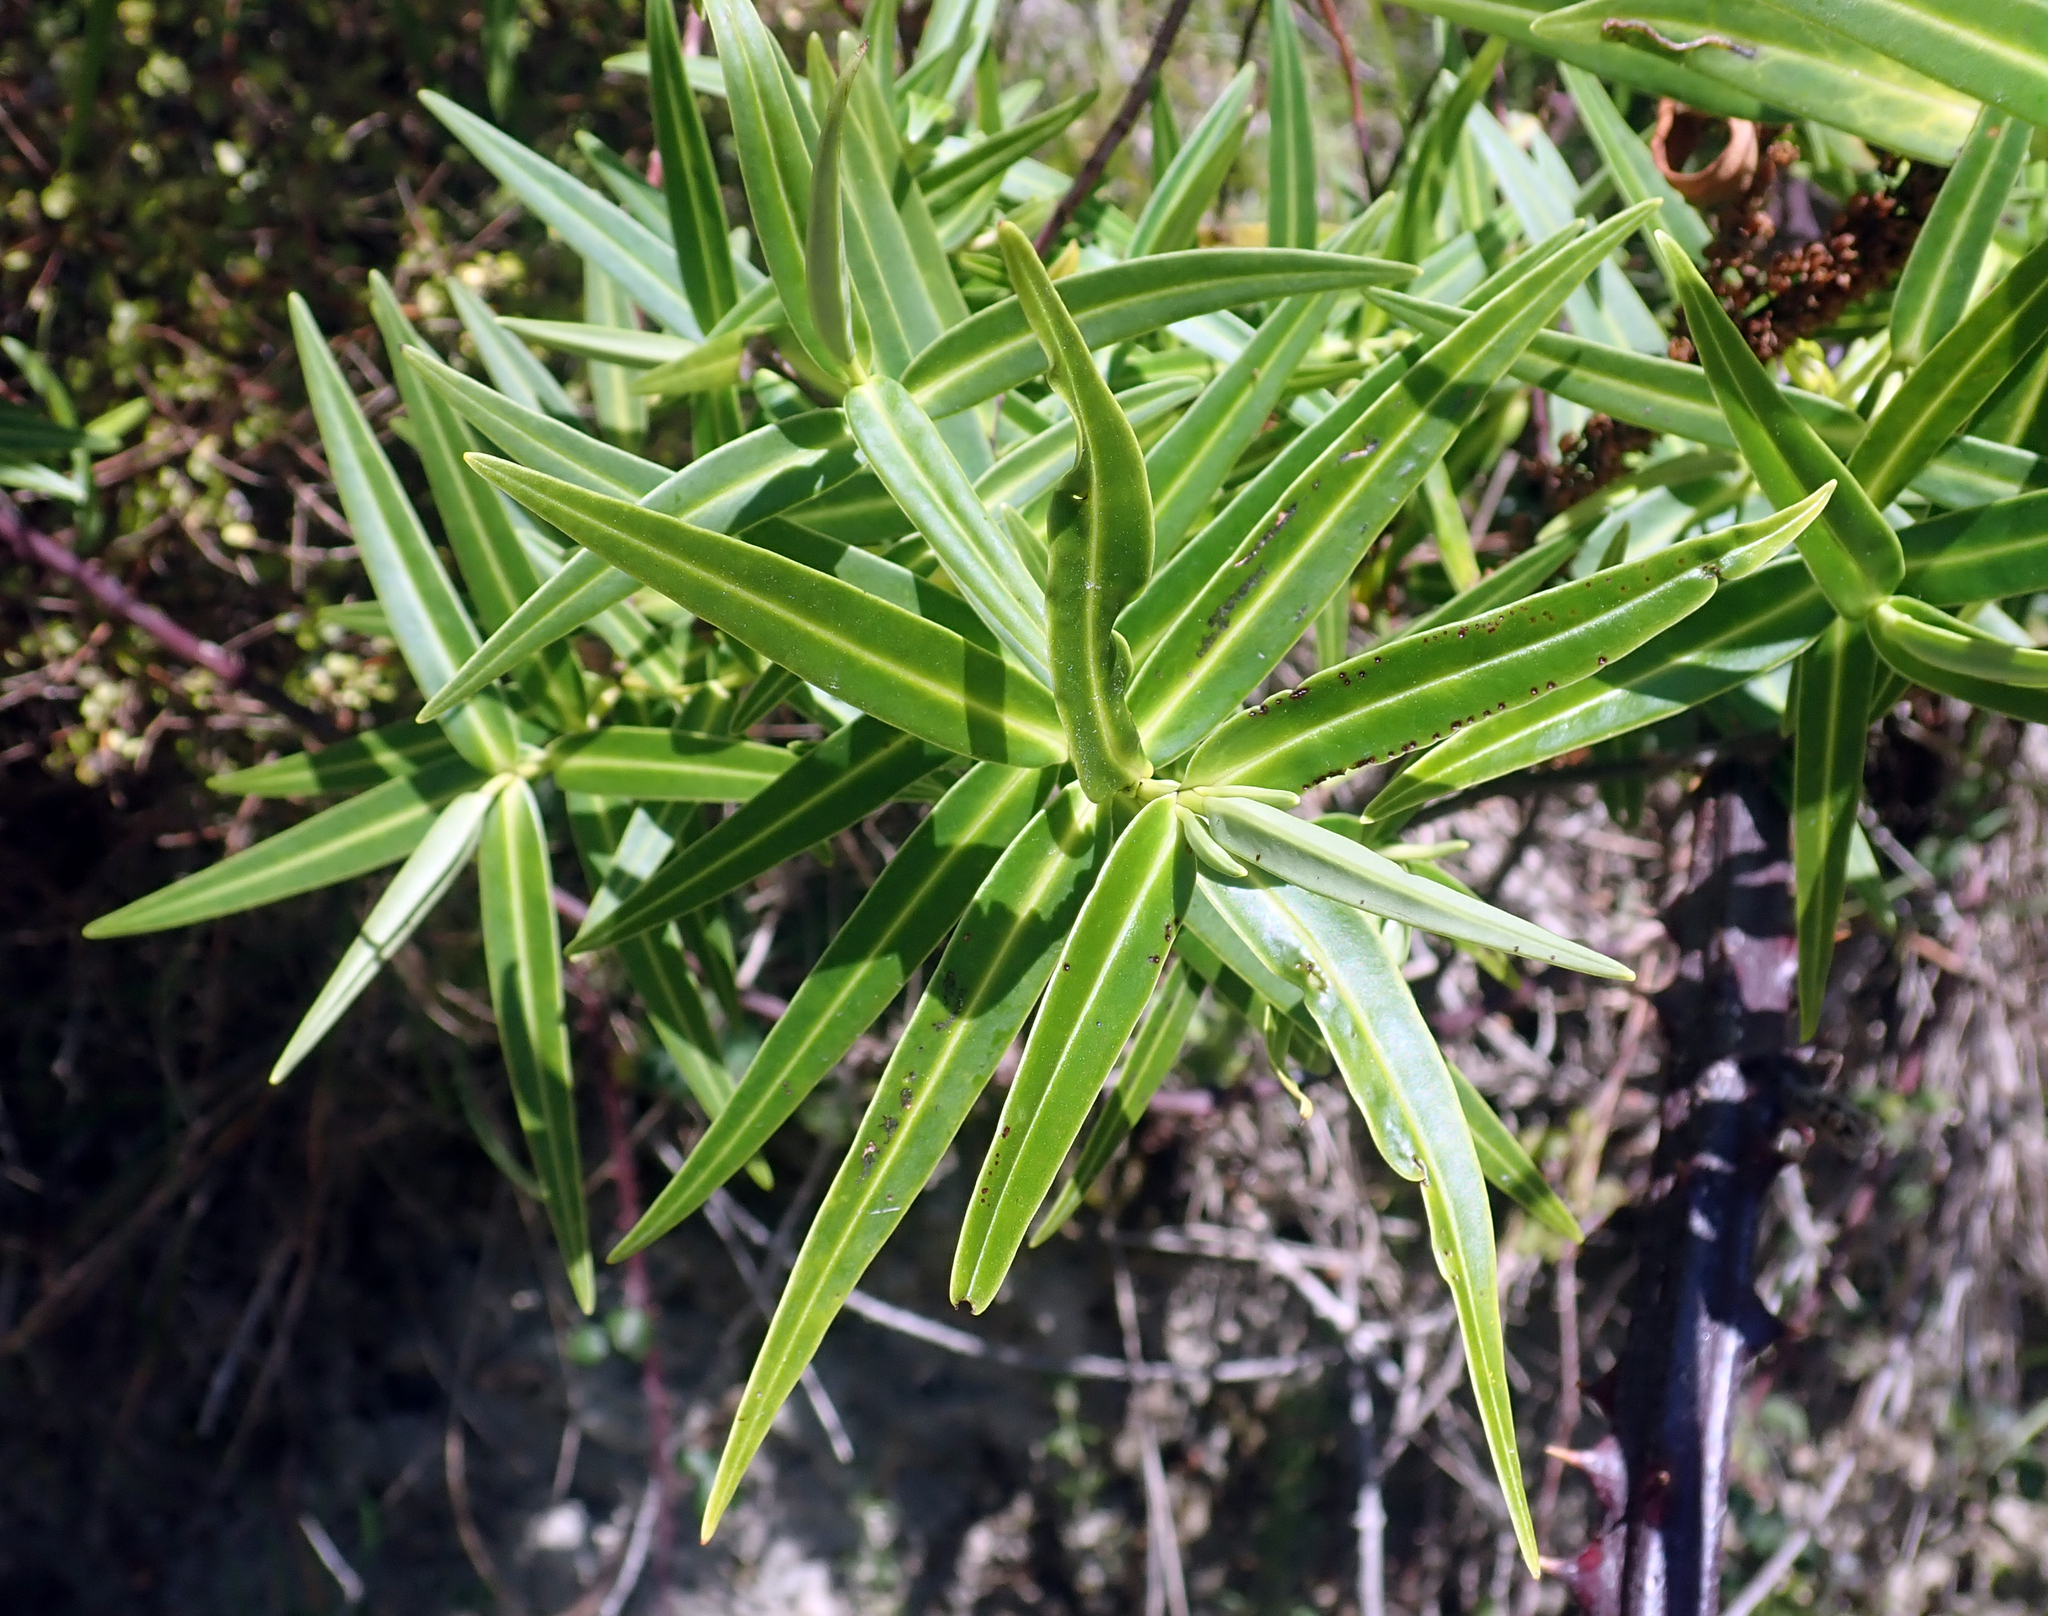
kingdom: Plantae
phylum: Tracheophyta
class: Magnoliopsida
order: Lamiales
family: Plantaginaceae
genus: Veronica
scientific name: Veronica tairawhiti
